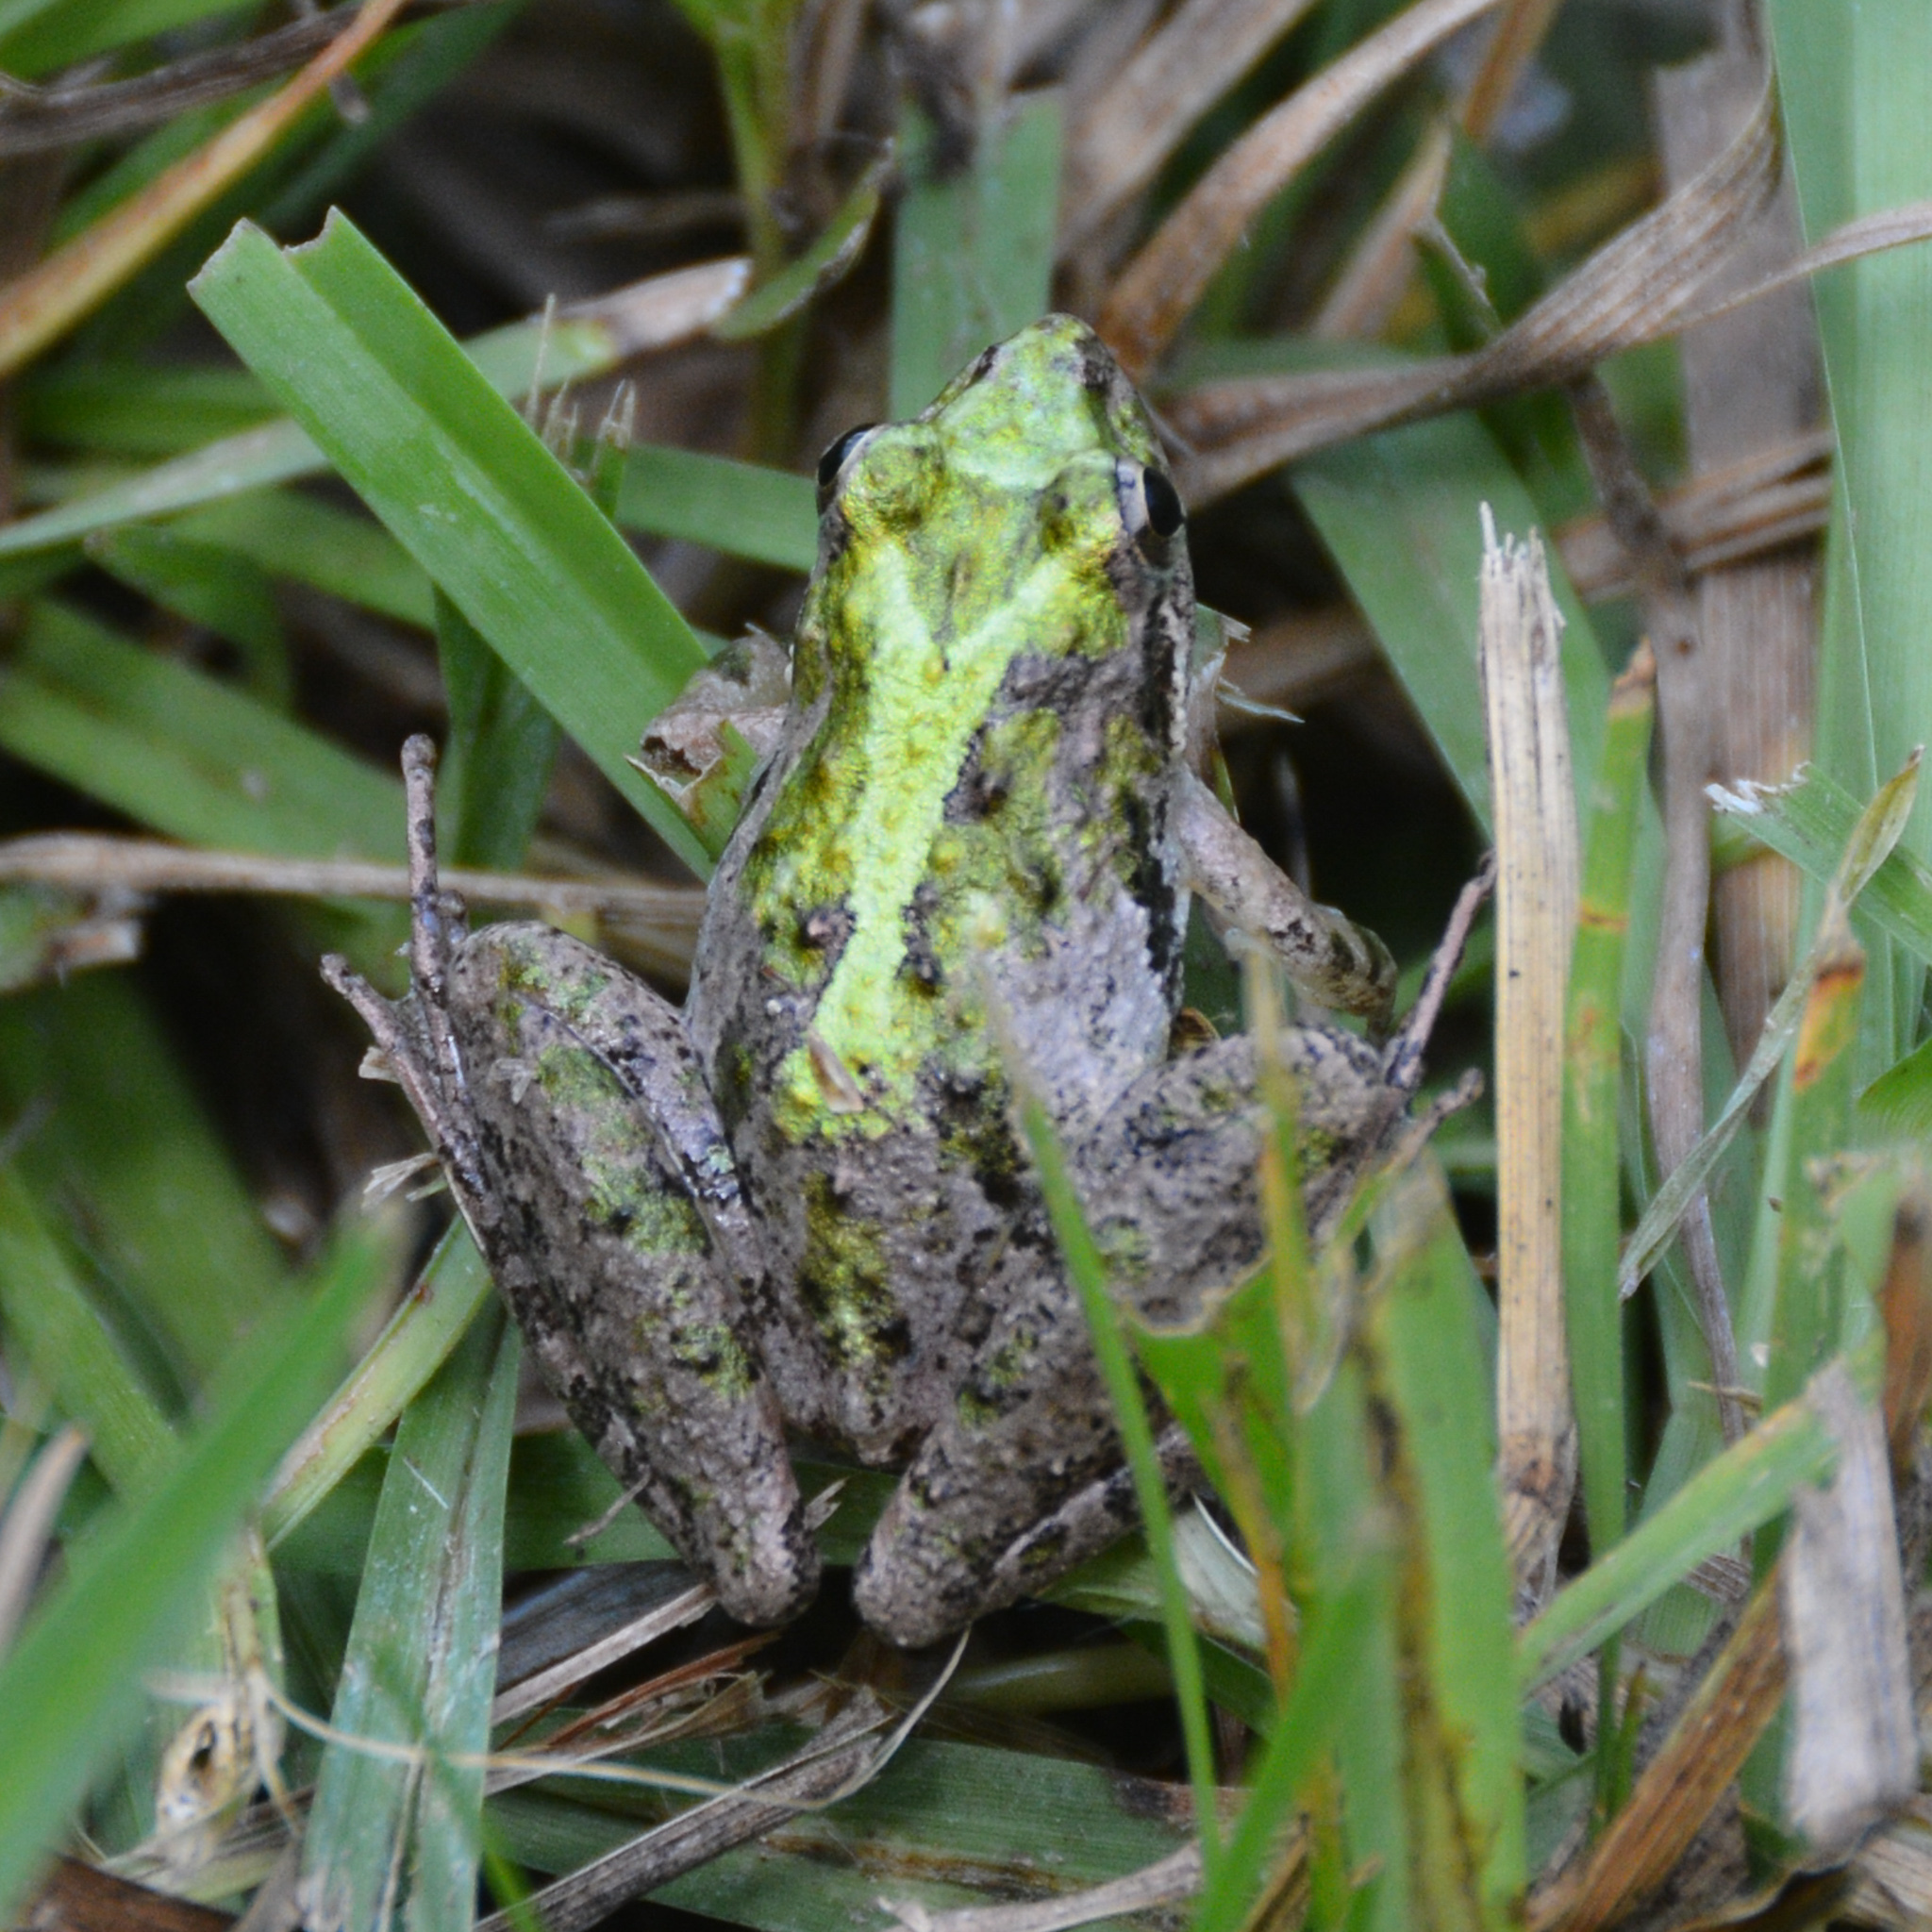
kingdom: Animalia
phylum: Chordata
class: Amphibia
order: Anura
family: Hylidae
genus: Acris
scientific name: Acris gryllus
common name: Southern cricket frog
